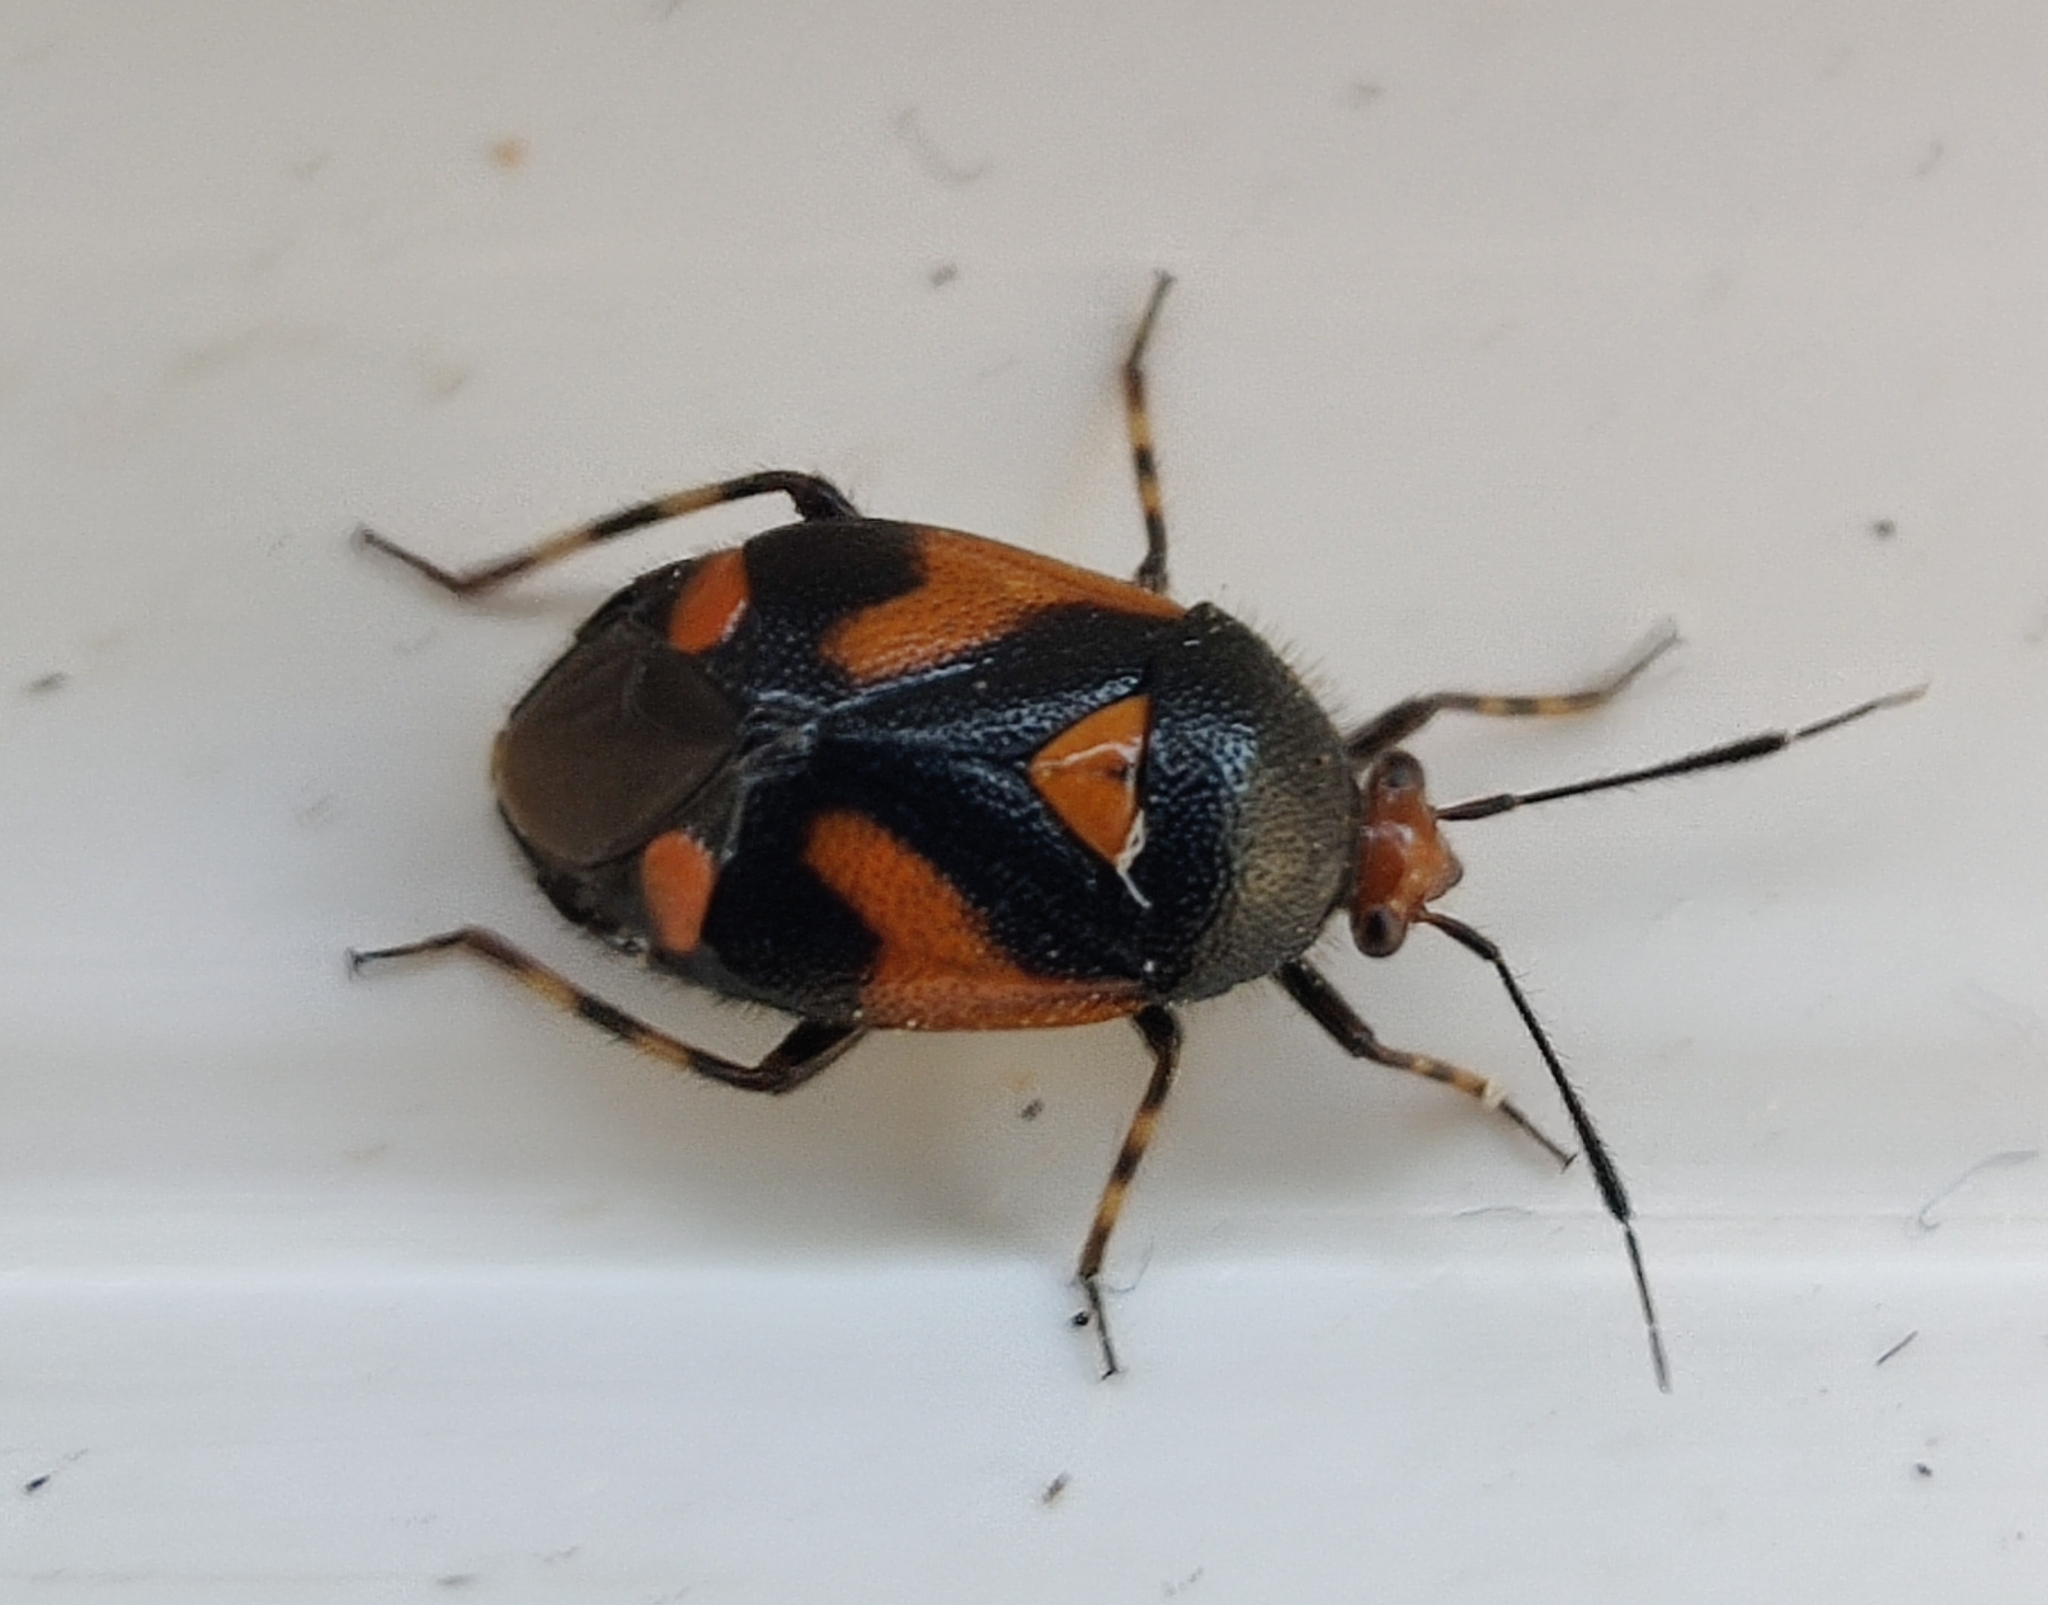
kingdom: Animalia
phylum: Arthropoda
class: Insecta
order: Hemiptera
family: Miridae
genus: Deraeocoris
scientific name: Deraeocoris schach
